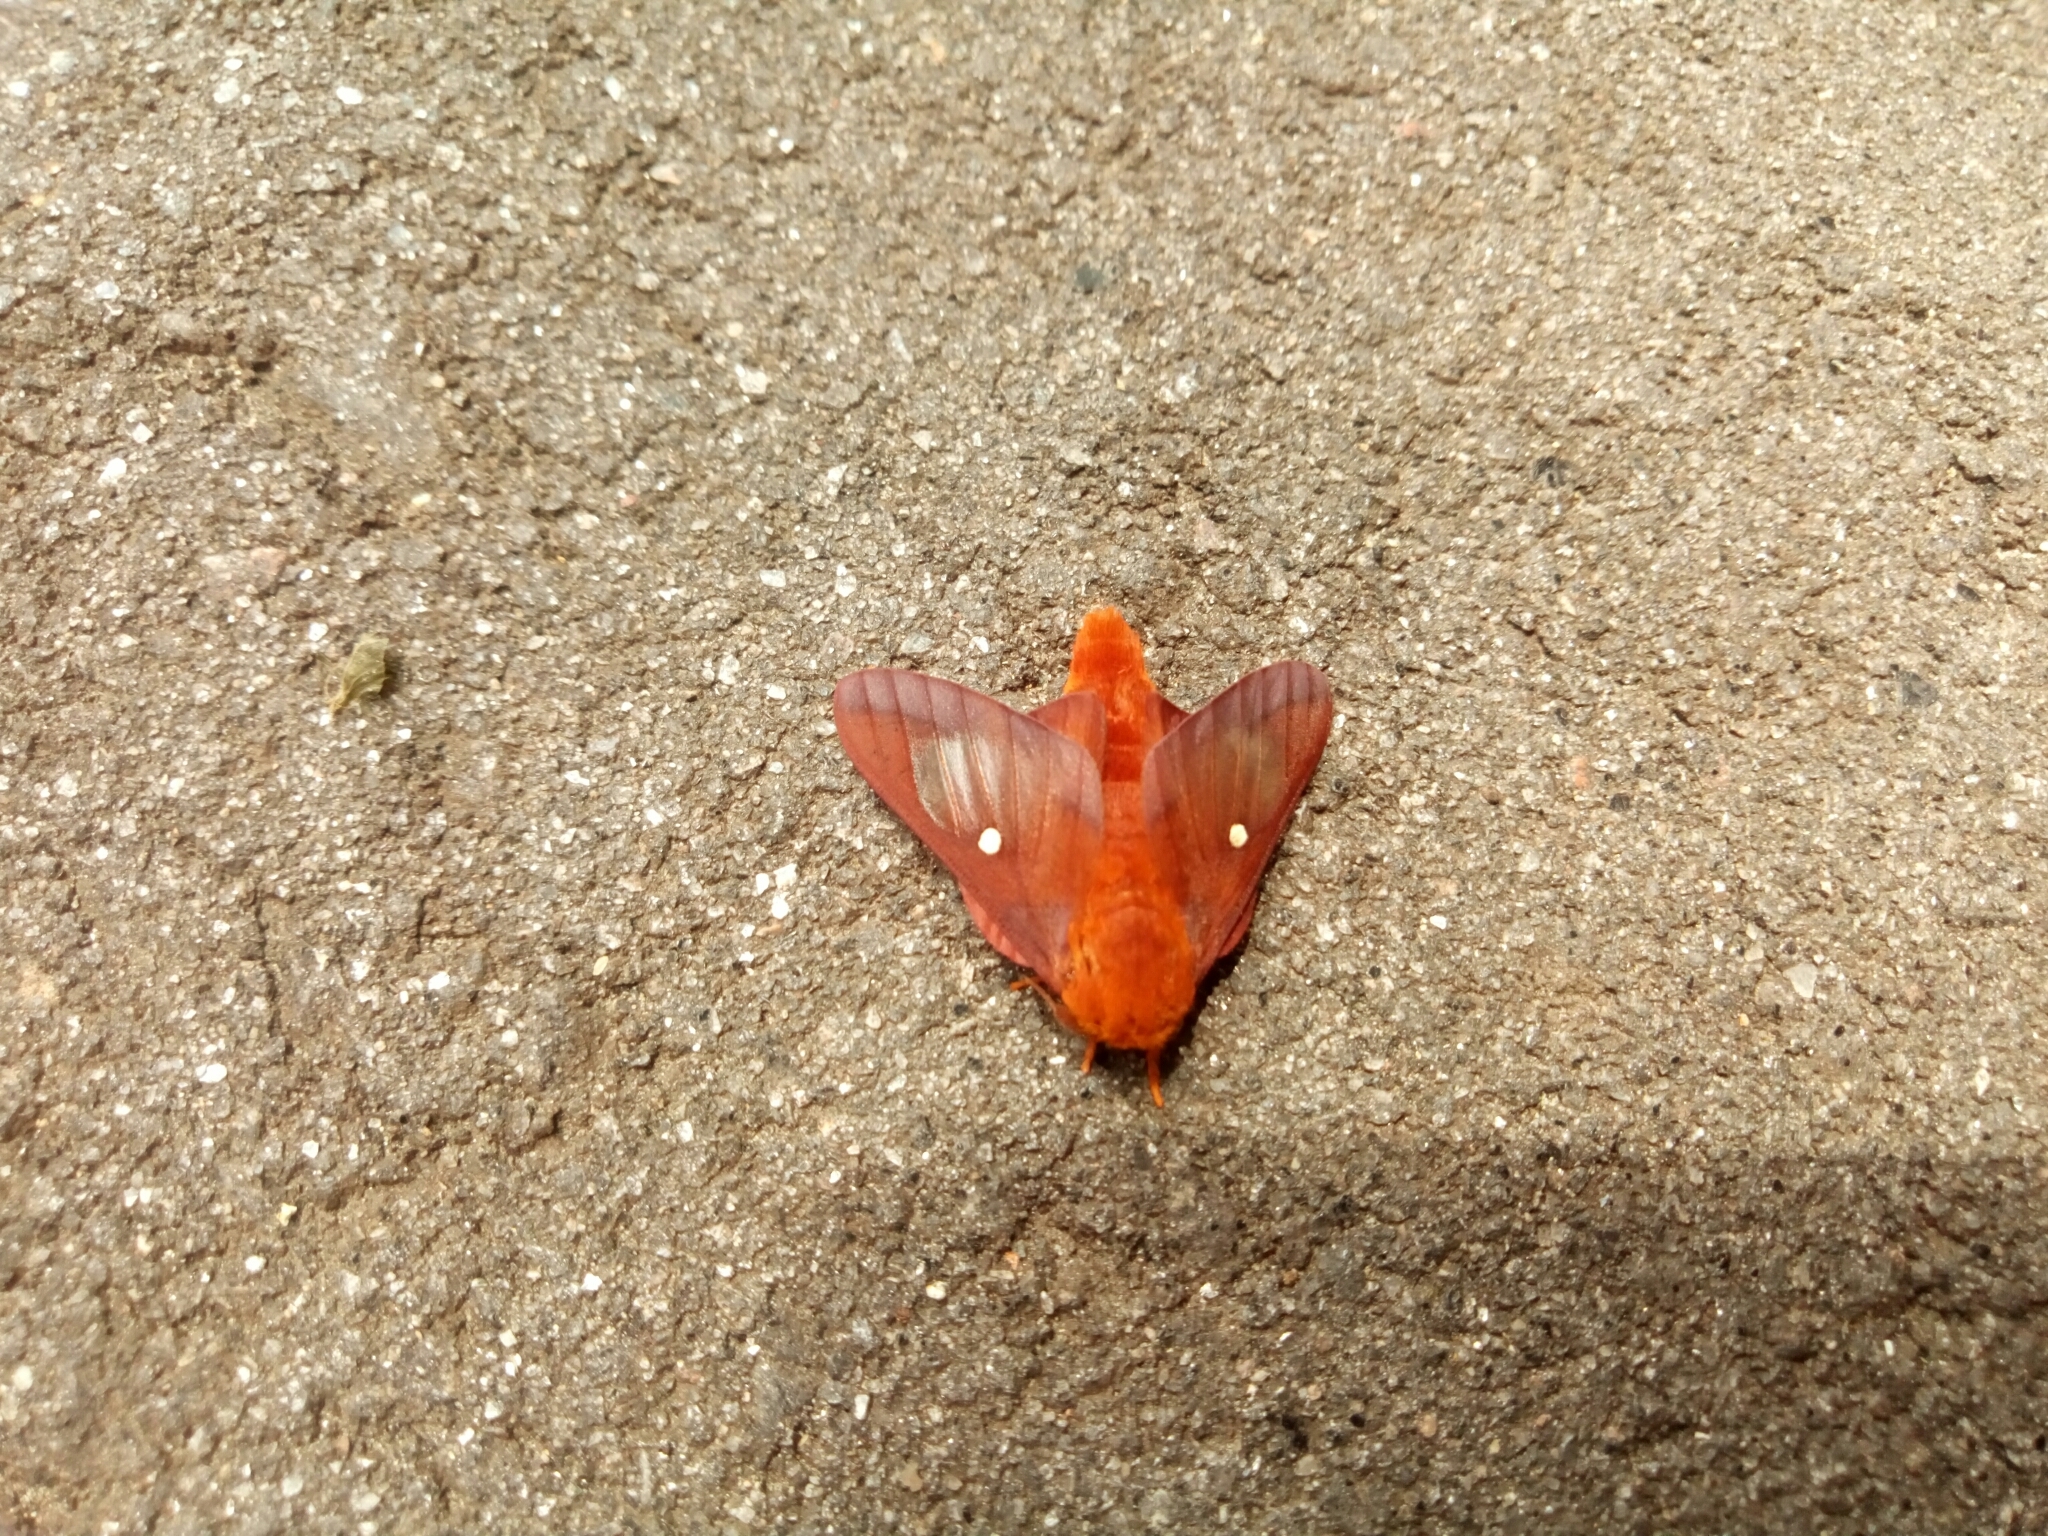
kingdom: Animalia
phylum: Arthropoda
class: Insecta
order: Lepidoptera
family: Saturniidae
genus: Anisota
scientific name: Anisota virginiensis
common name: Pink striped oakworm moth
